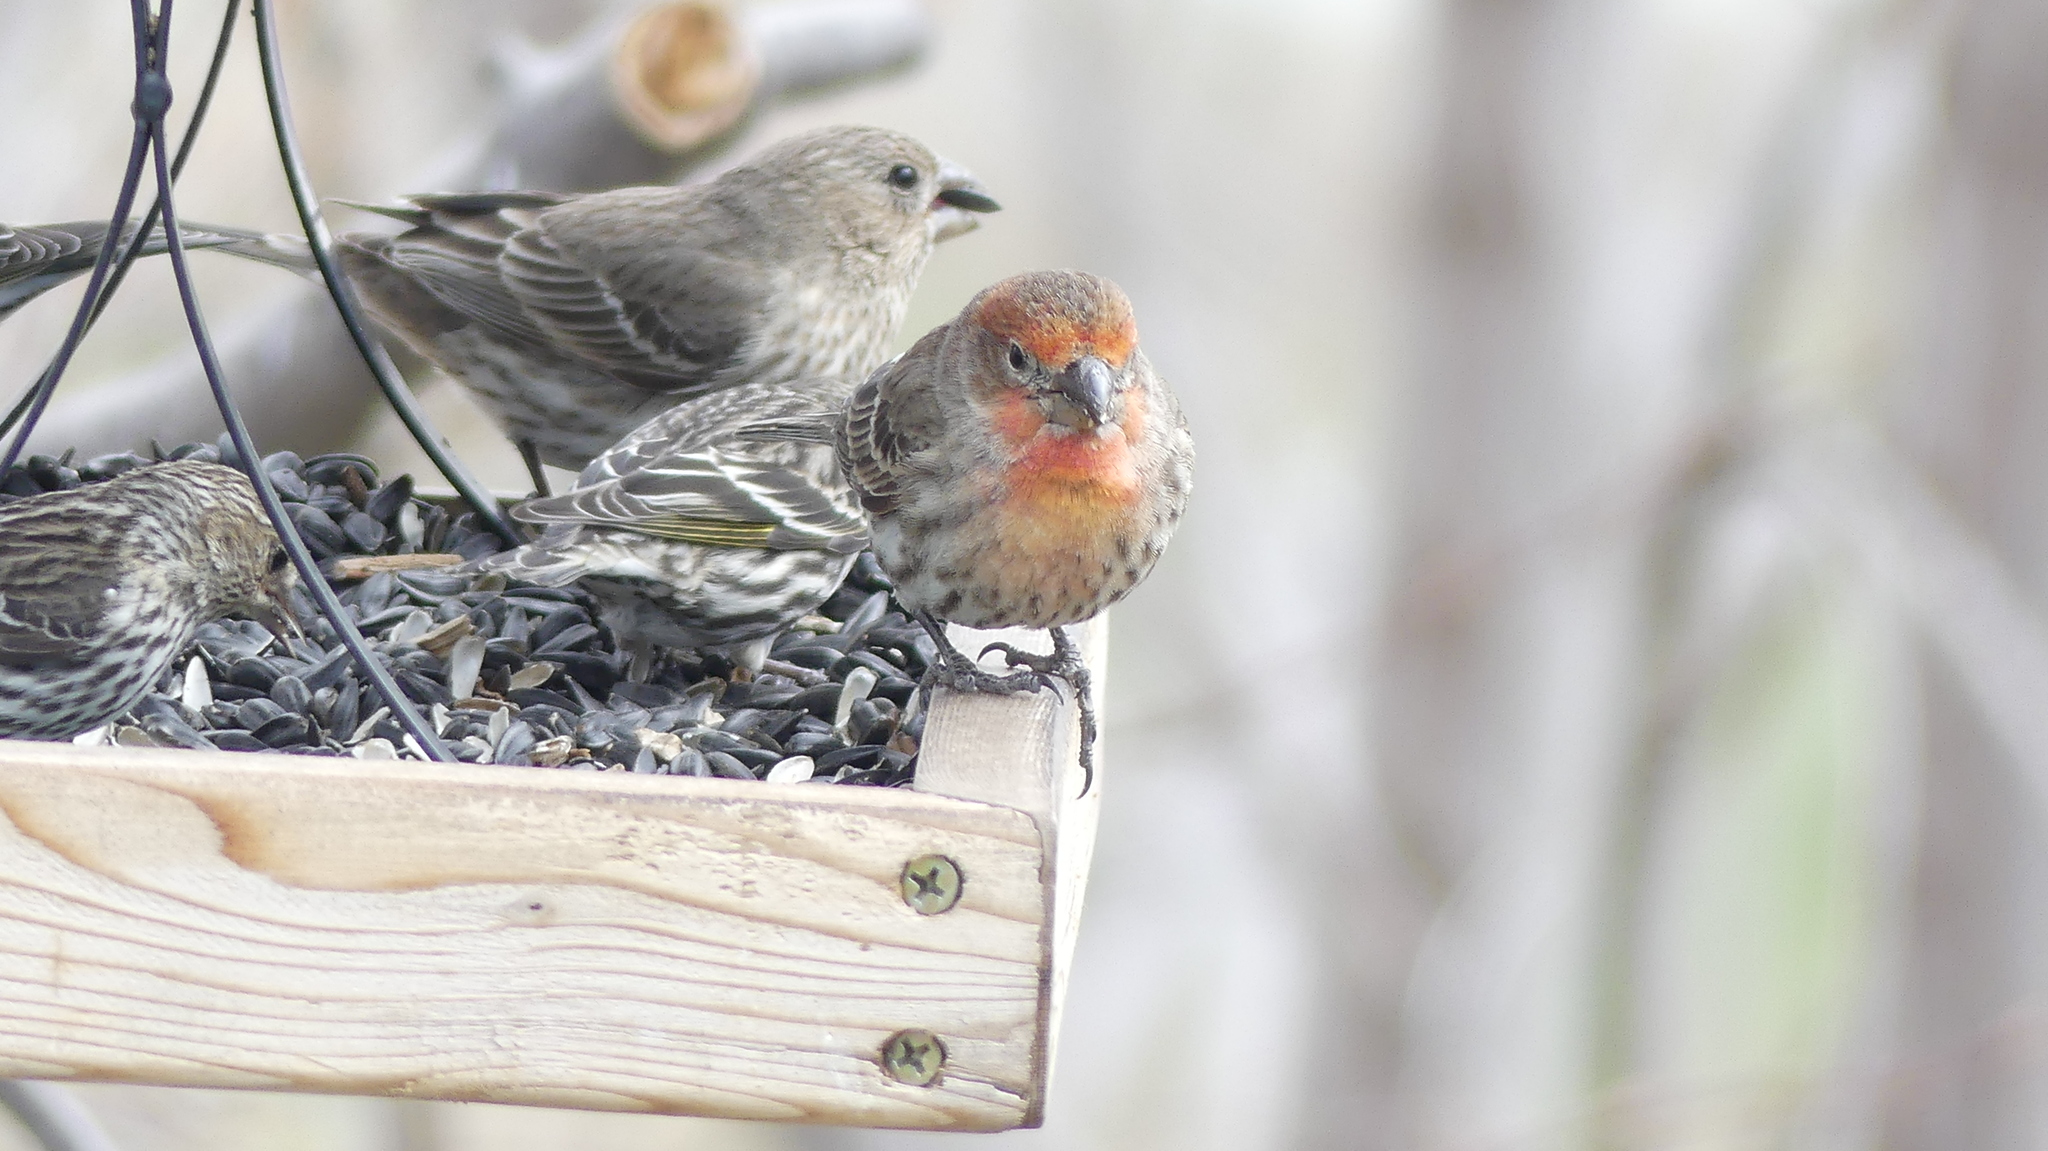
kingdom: Animalia
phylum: Chordata
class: Aves
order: Passeriformes
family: Fringillidae
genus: Haemorhous
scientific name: Haemorhous mexicanus
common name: House finch
